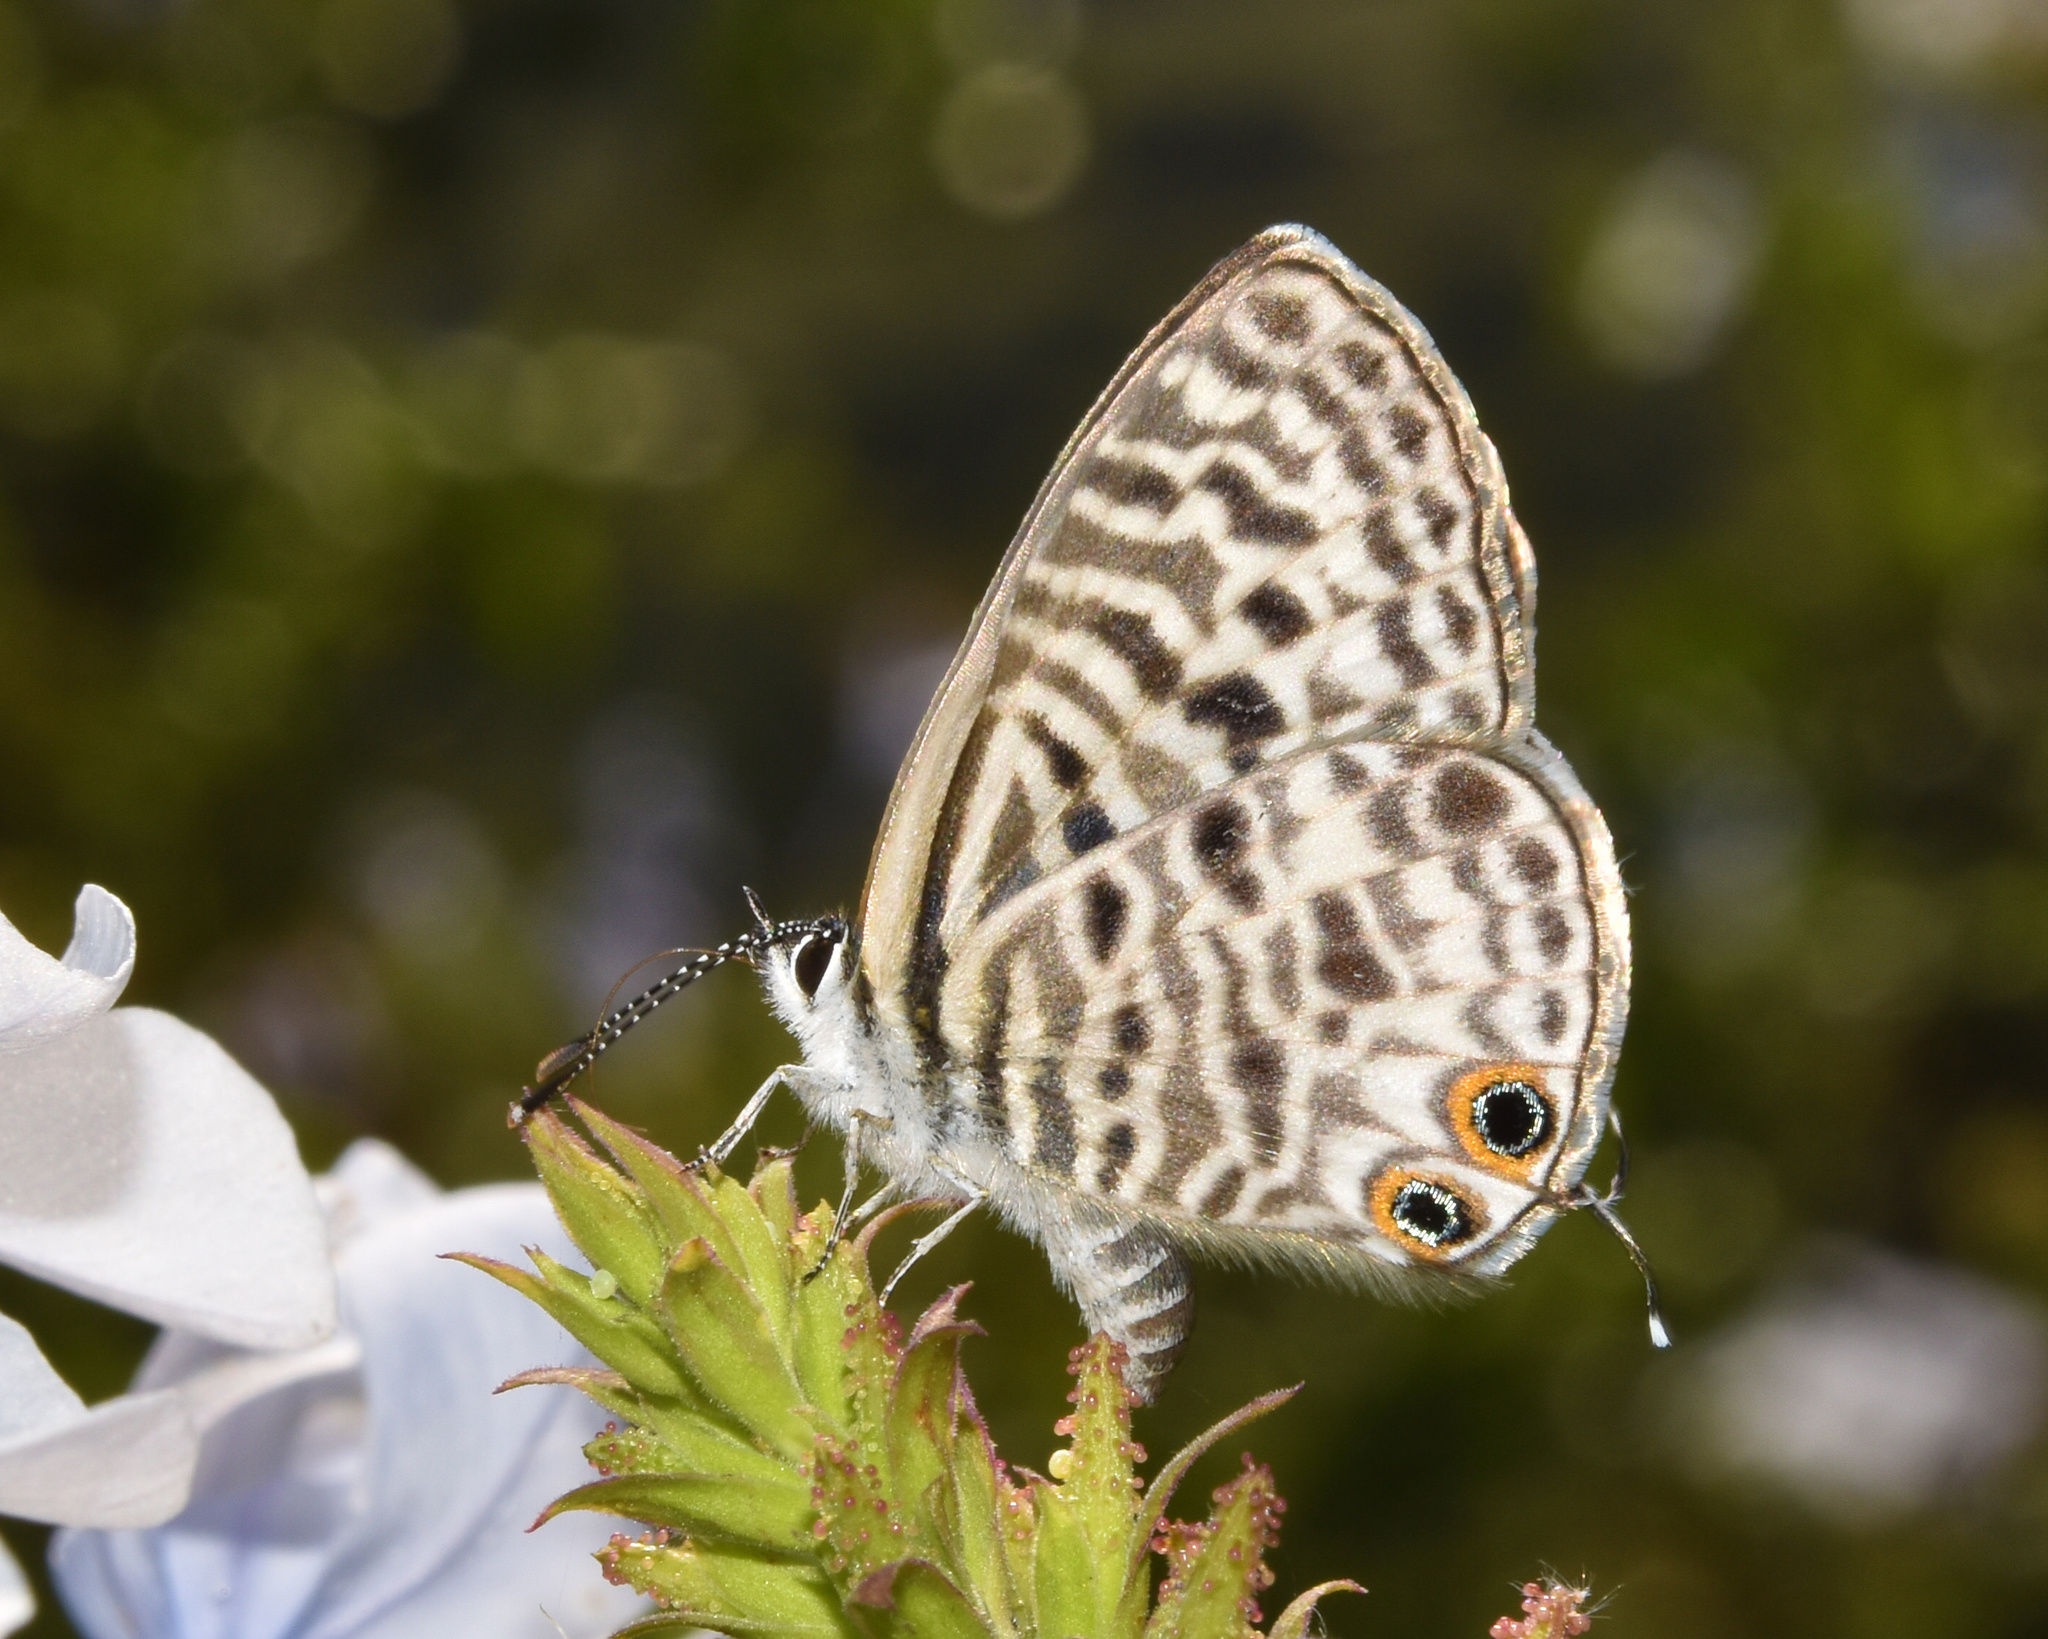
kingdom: Animalia
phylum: Arthropoda
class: Insecta
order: Lepidoptera
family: Lycaenidae
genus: Leptotes
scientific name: Leptotes
